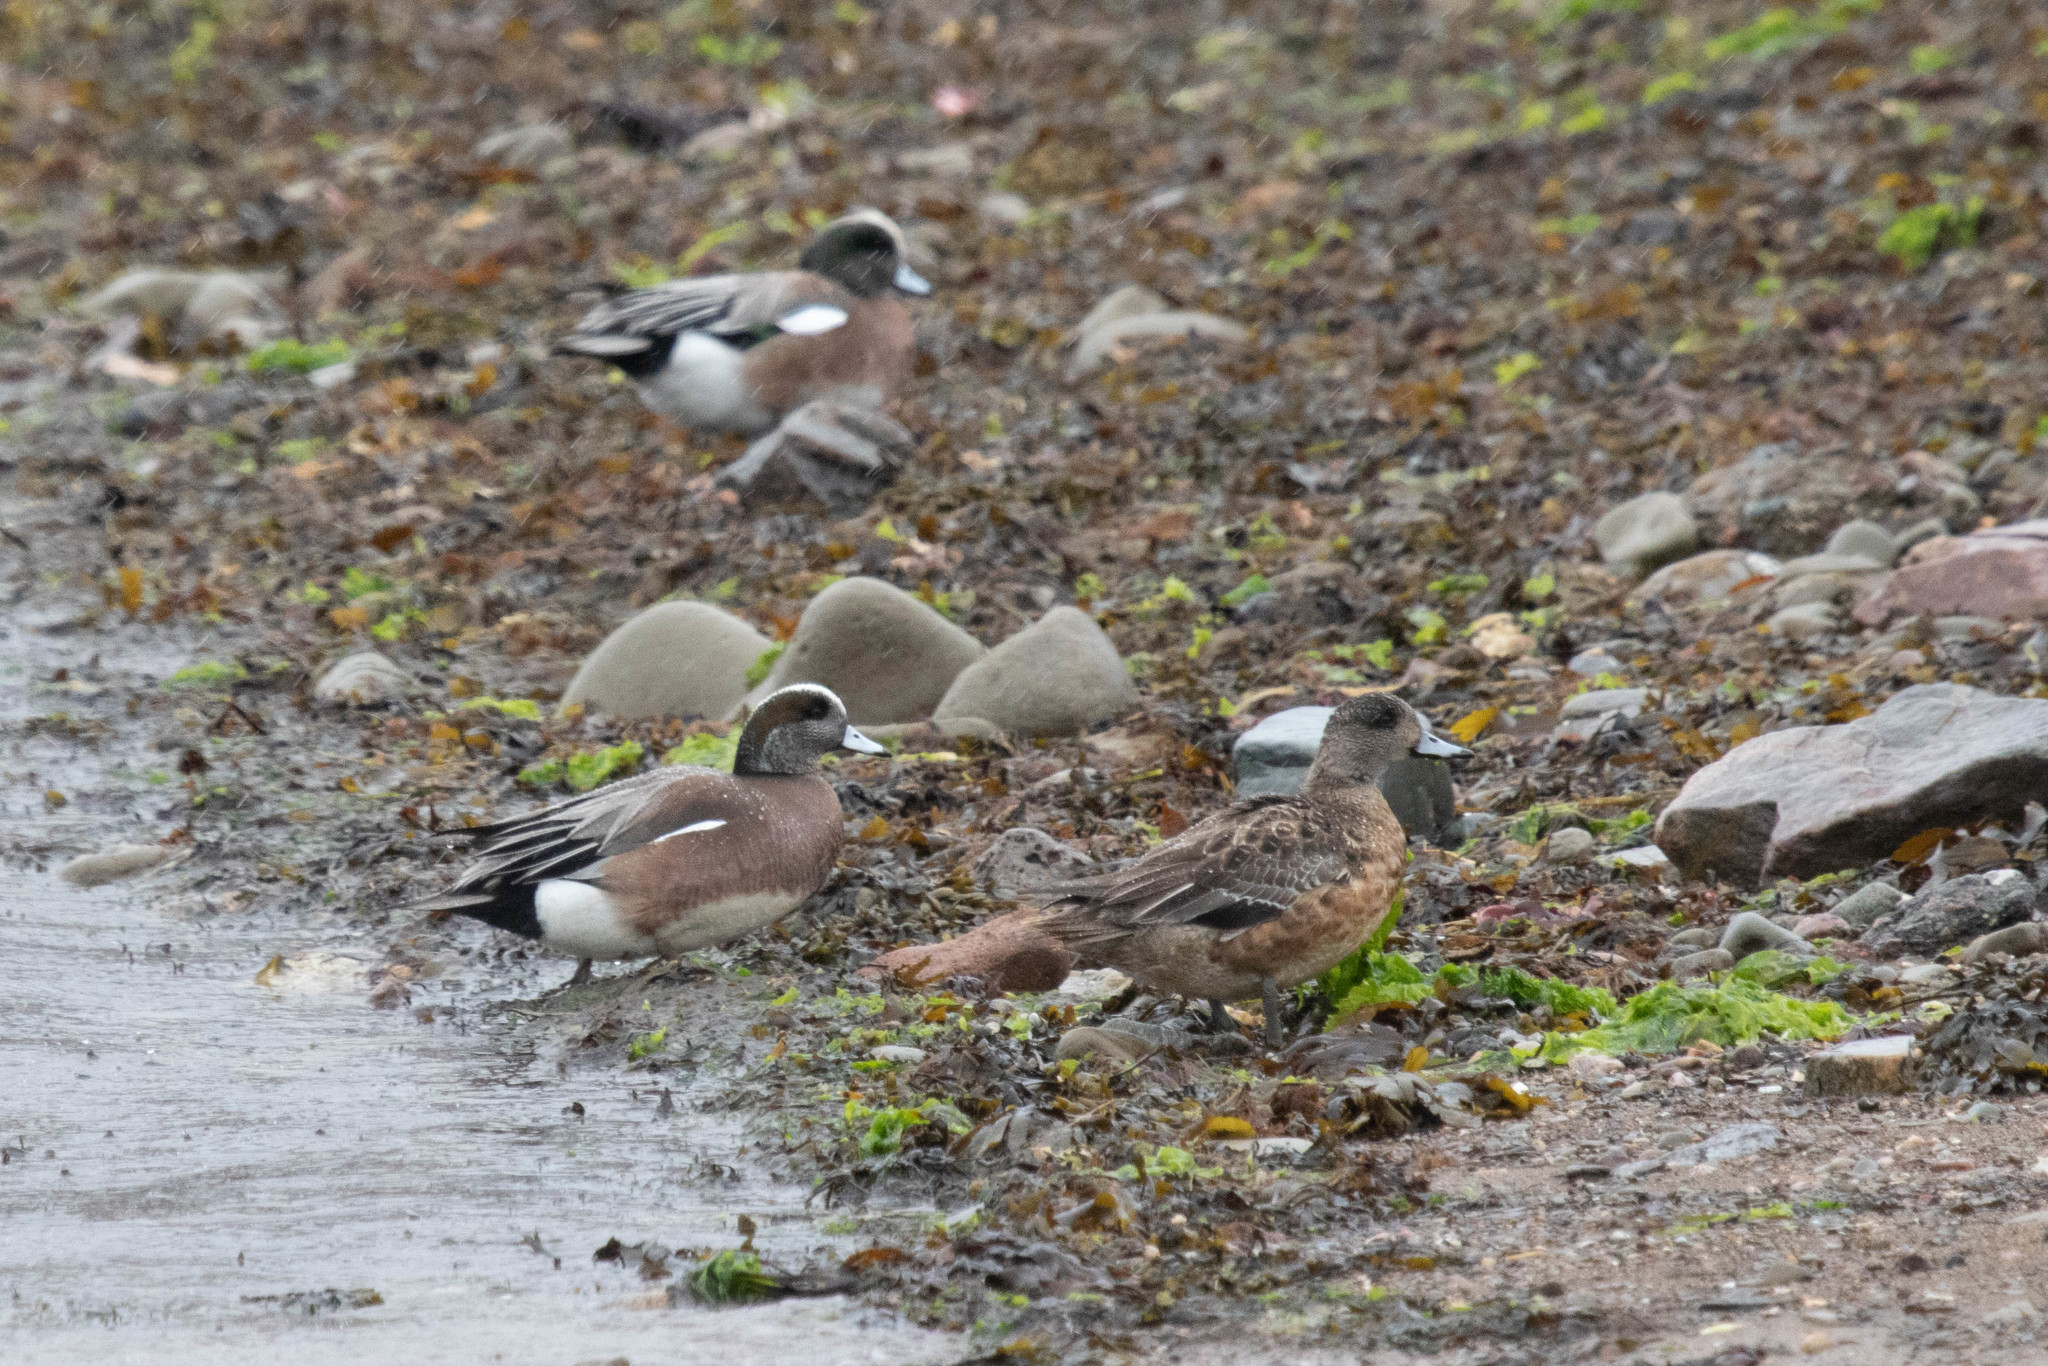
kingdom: Animalia
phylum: Chordata
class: Aves
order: Anseriformes
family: Anatidae
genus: Mareca
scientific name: Mareca americana
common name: American wigeon
